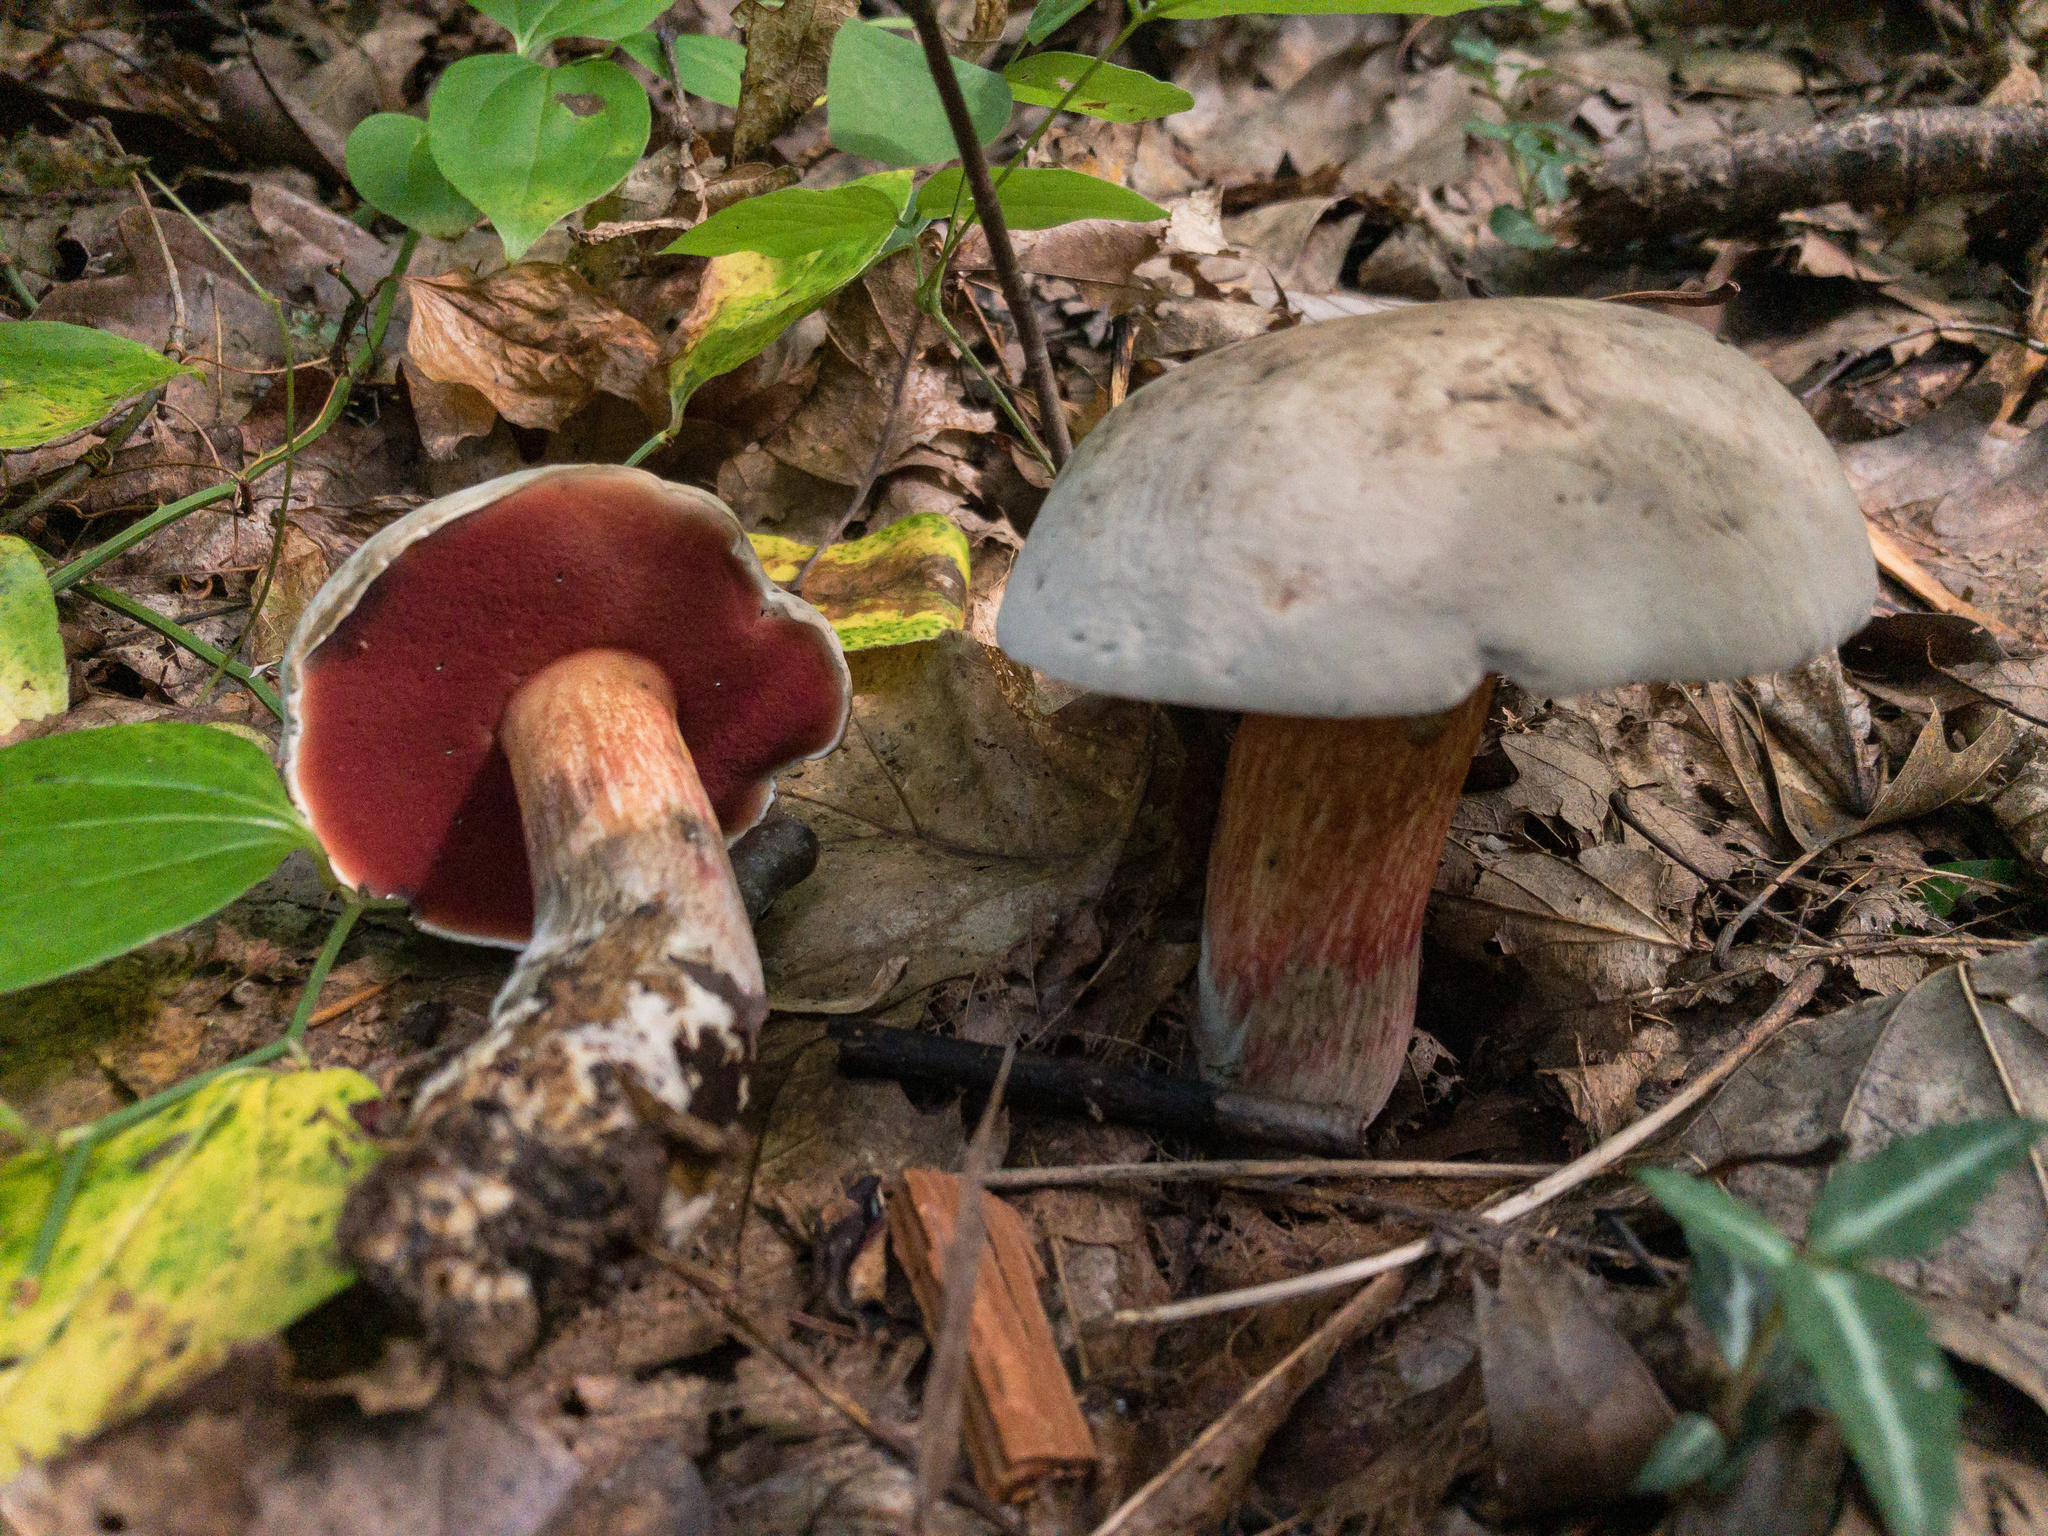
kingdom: Fungi
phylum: Basidiomycota
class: Agaricomycetes
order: Boletales
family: Boletaceae
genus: Caloboletus
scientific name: Caloboletus firmus
